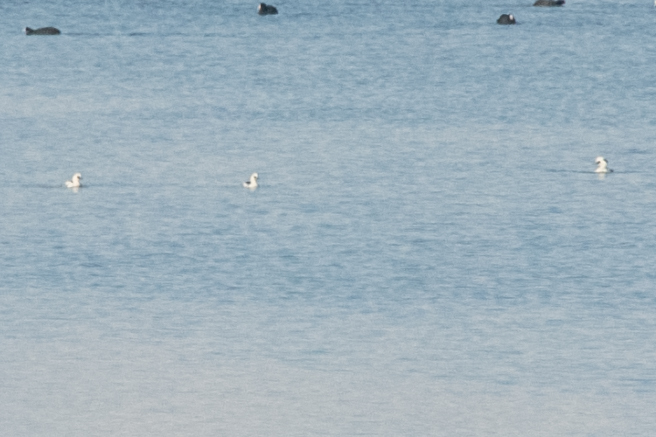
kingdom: Animalia
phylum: Chordata
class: Aves
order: Anseriformes
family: Anatidae
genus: Mergellus
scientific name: Mergellus albellus
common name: Smew
